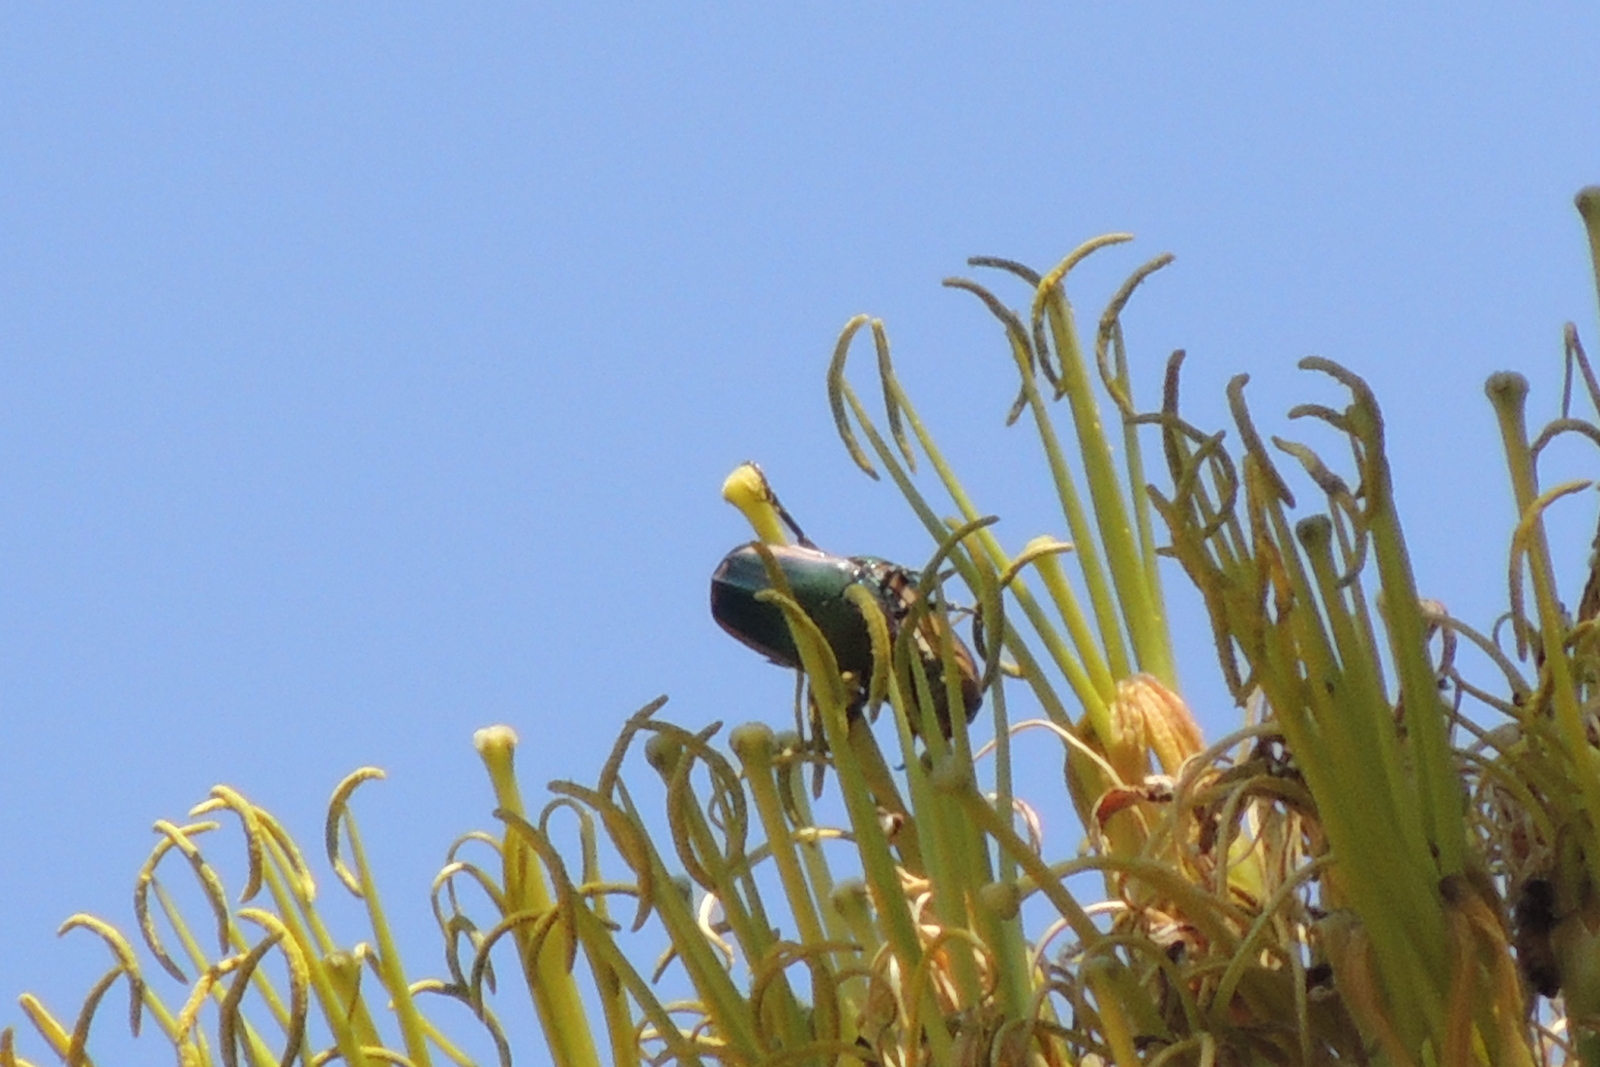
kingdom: Animalia
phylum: Arthropoda
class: Insecta
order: Coleoptera
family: Scarabaeidae
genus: Cotinis
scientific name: Cotinis mutabilis
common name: Figeater beetle
